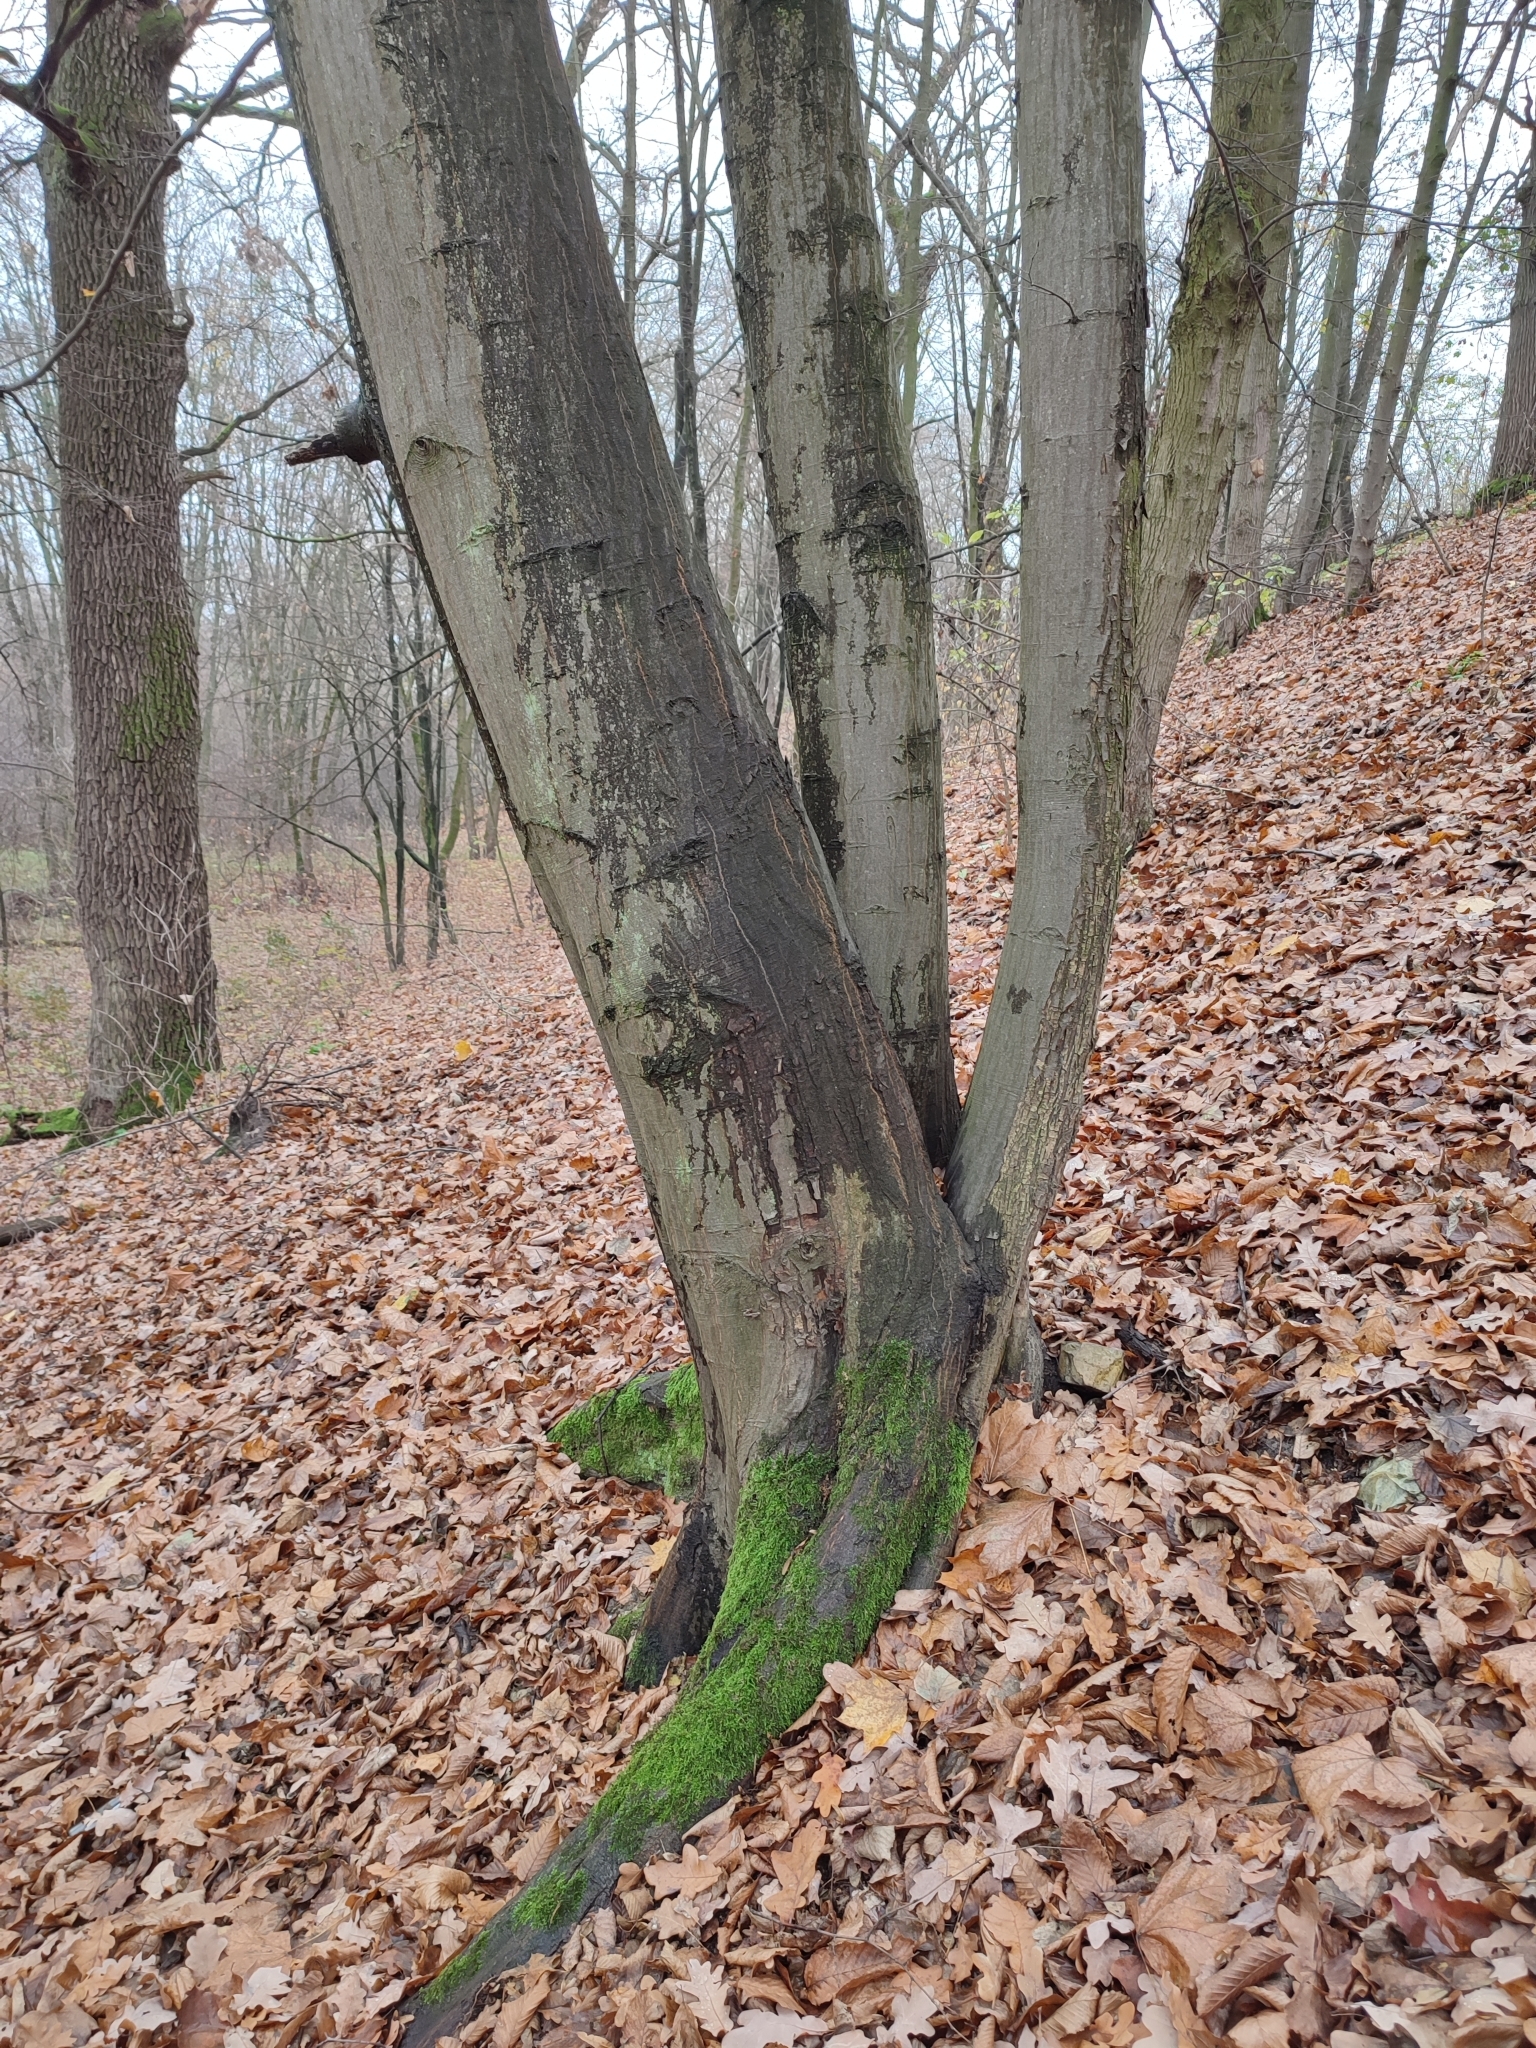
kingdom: Plantae
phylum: Tracheophyta
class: Magnoliopsida
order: Fagales
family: Betulaceae
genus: Carpinus
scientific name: Carpinus betulus
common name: Hornbeam
